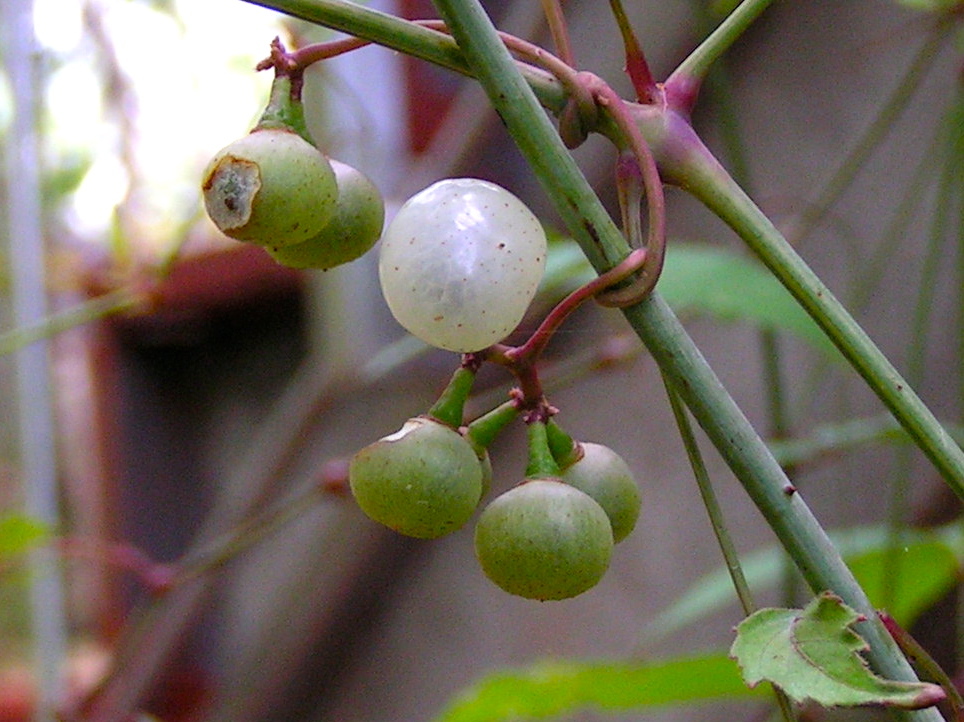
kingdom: Plantae
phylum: Tracheophyta
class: Magnoliopsida
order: Vitales
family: Vitaceae
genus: Ampelopsis
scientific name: Ampelopsis denudata
